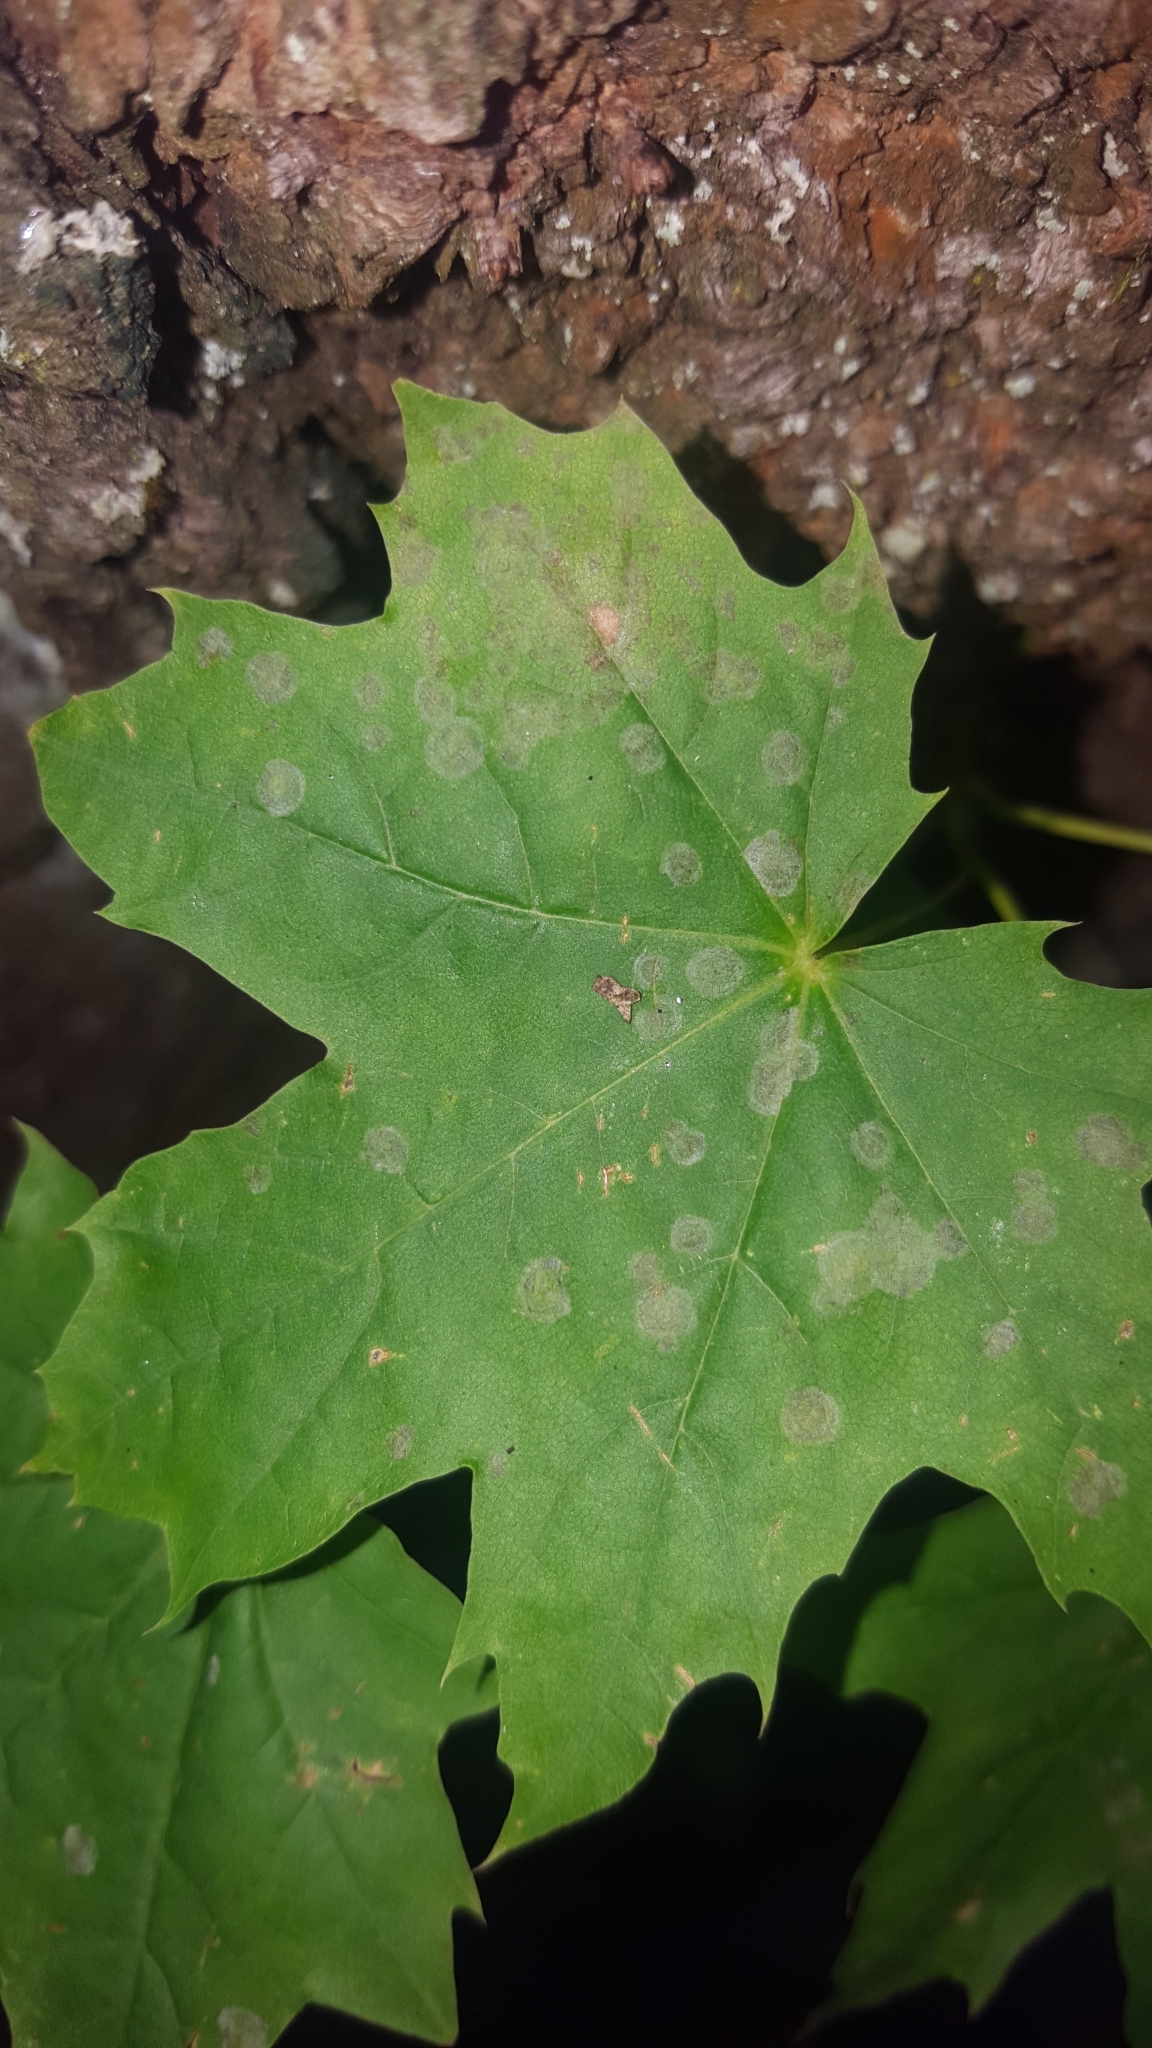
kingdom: Fungi
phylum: Ascomycota
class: Leotiomycetes
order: Helotiales
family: Erysiphaceae
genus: Sawadaea
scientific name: Sawadaea tulasnei
